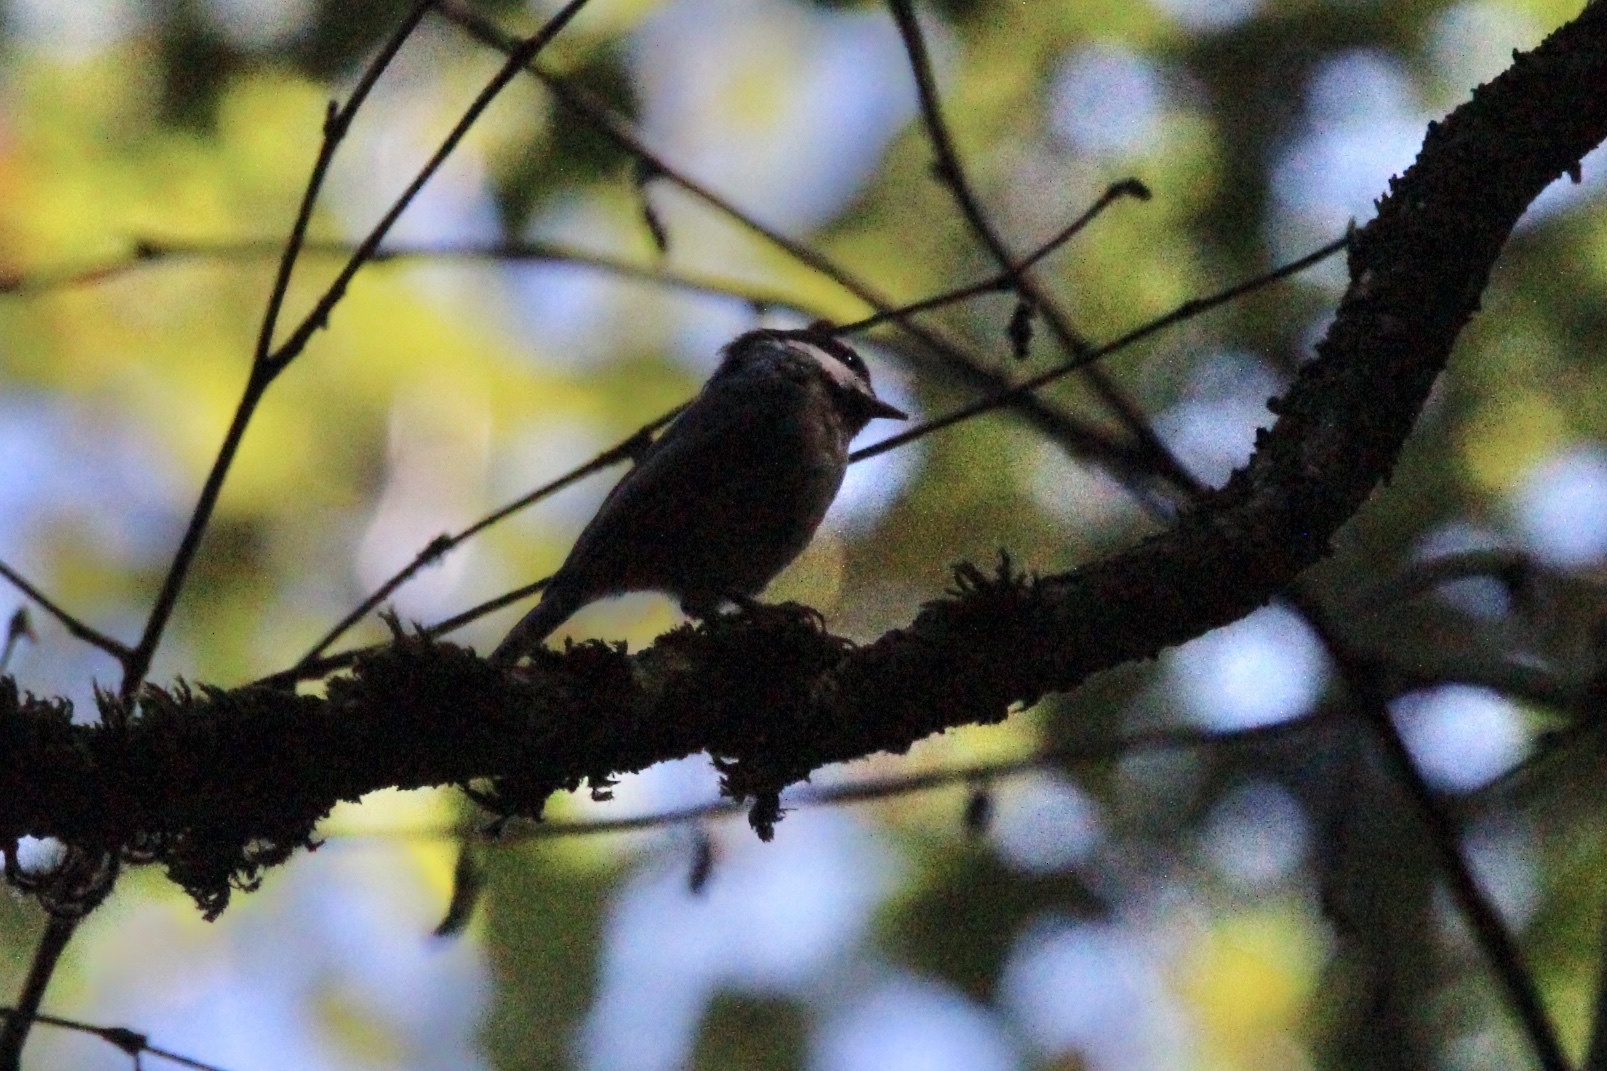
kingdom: Animalia
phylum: Chordata
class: Aves
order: Passeriformes
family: Paridae
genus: Poecile
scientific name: Poecile atricapillus
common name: Black-capped chickadee
